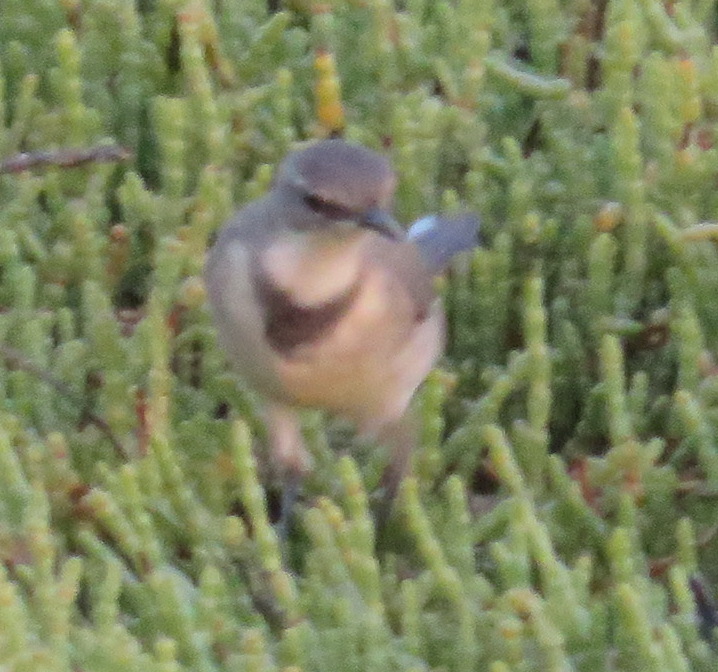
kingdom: Animalia
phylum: Chordata
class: Aves
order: Passeriformes
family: Motacillidae
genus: Motacilla
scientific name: Motacilla capensis
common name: Cape wagtail
